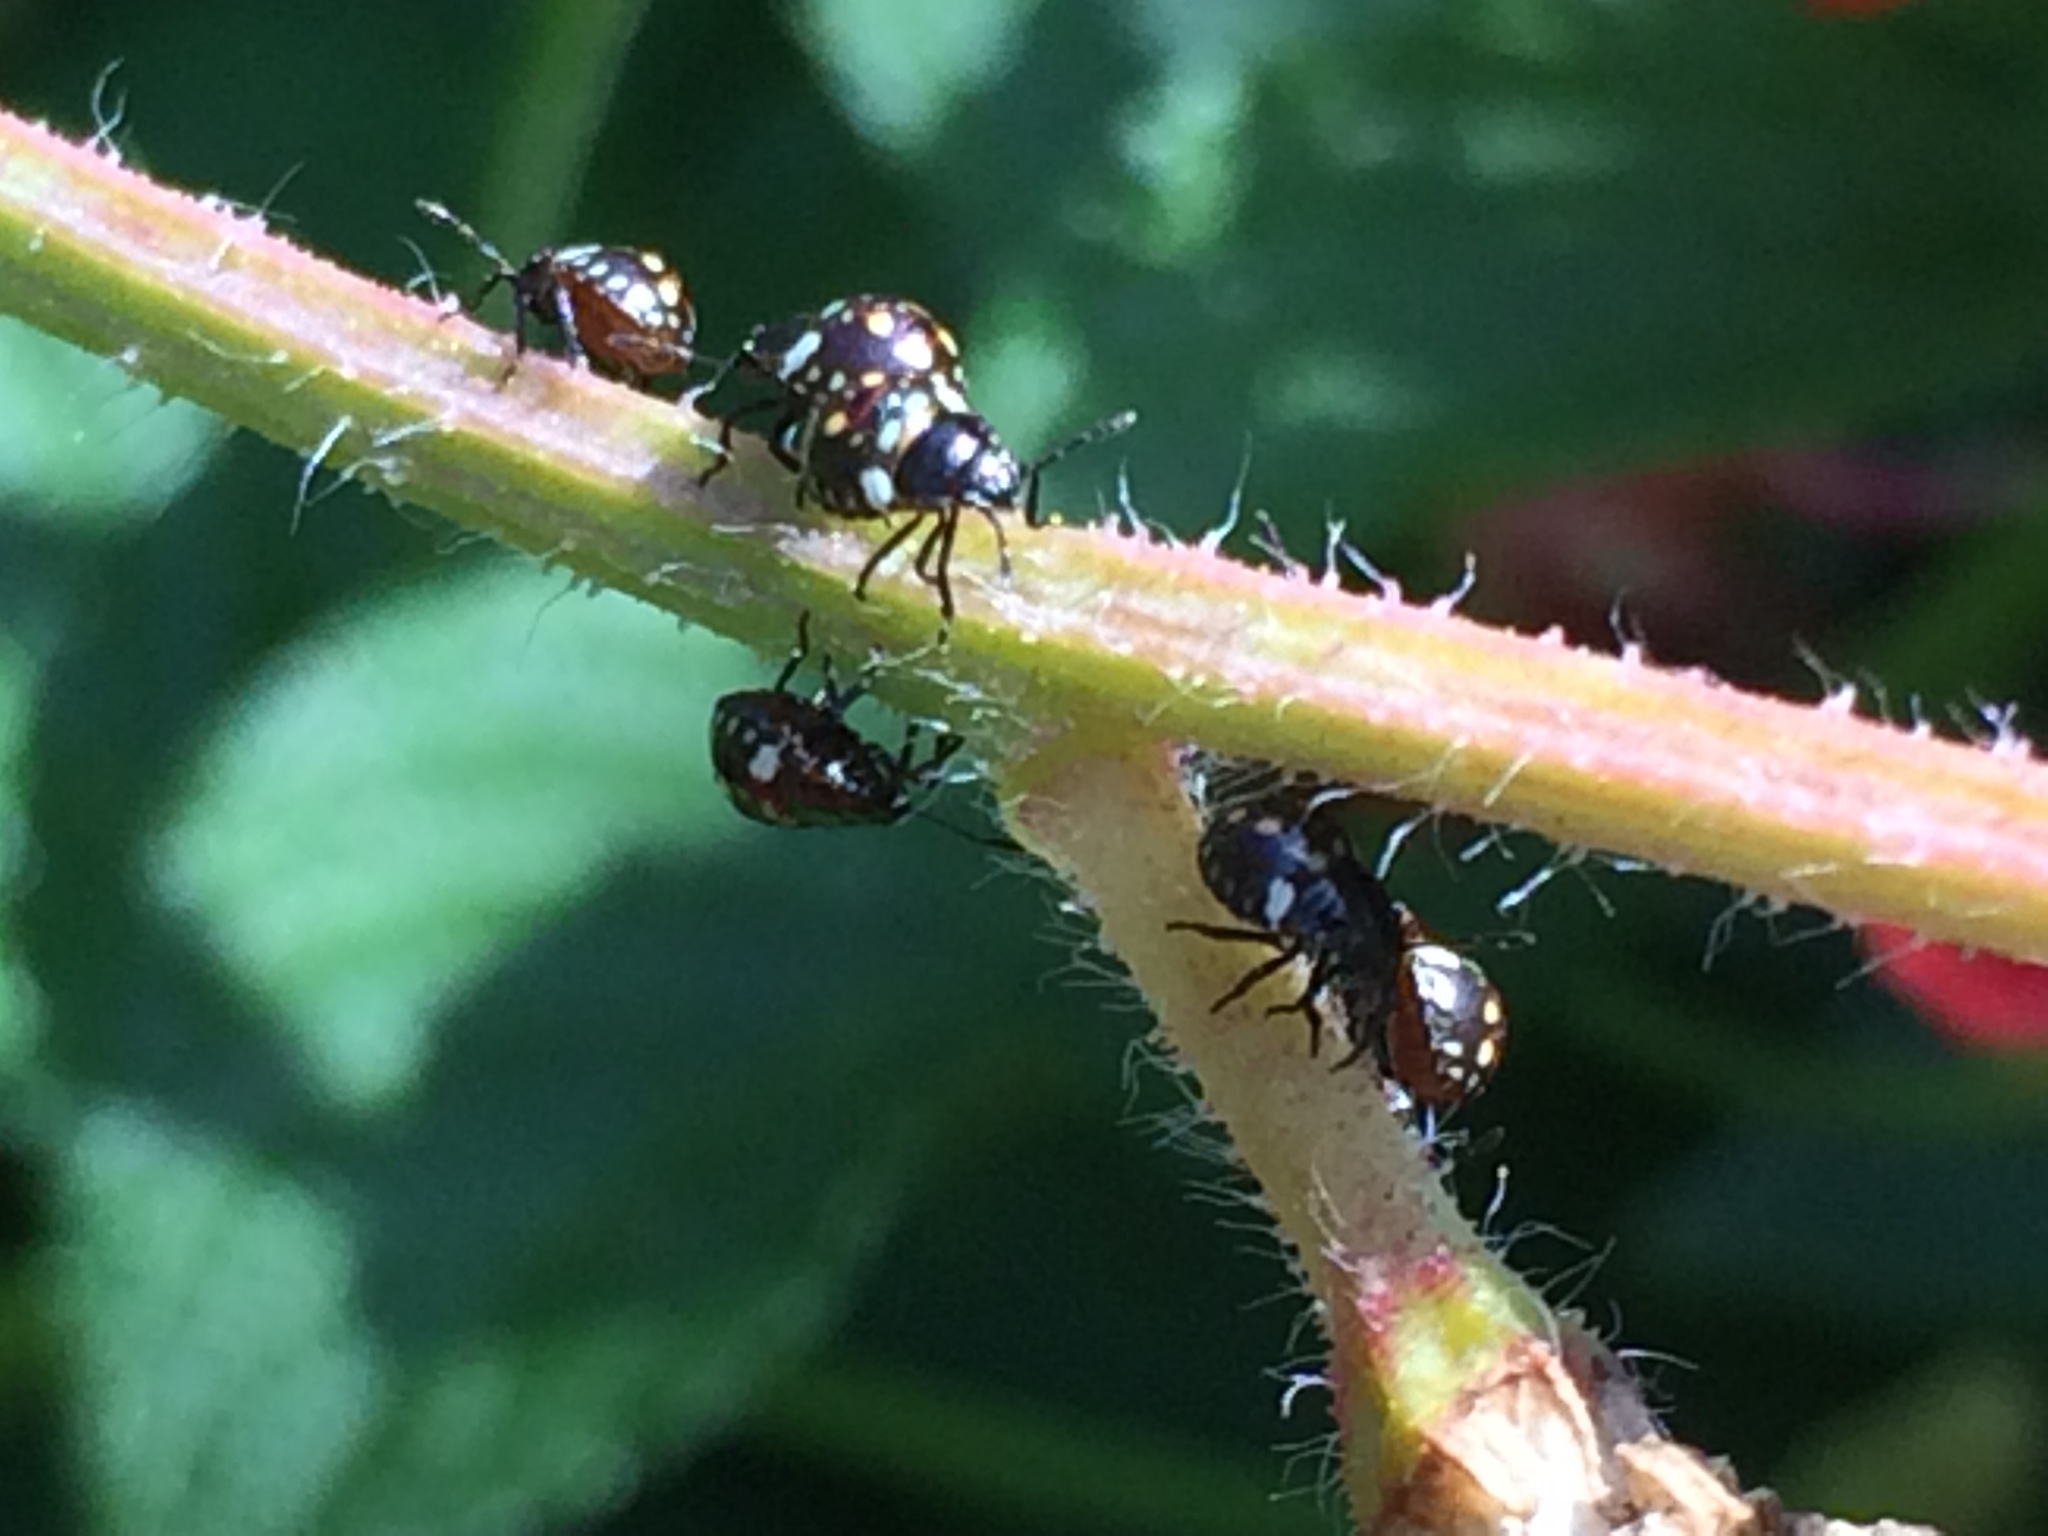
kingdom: Animalia
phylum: Arthropoda
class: Insecta
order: Hemiptera
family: Pentatomidae
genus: Nezara
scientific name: Nezara viridula
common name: Southern green stink bug
